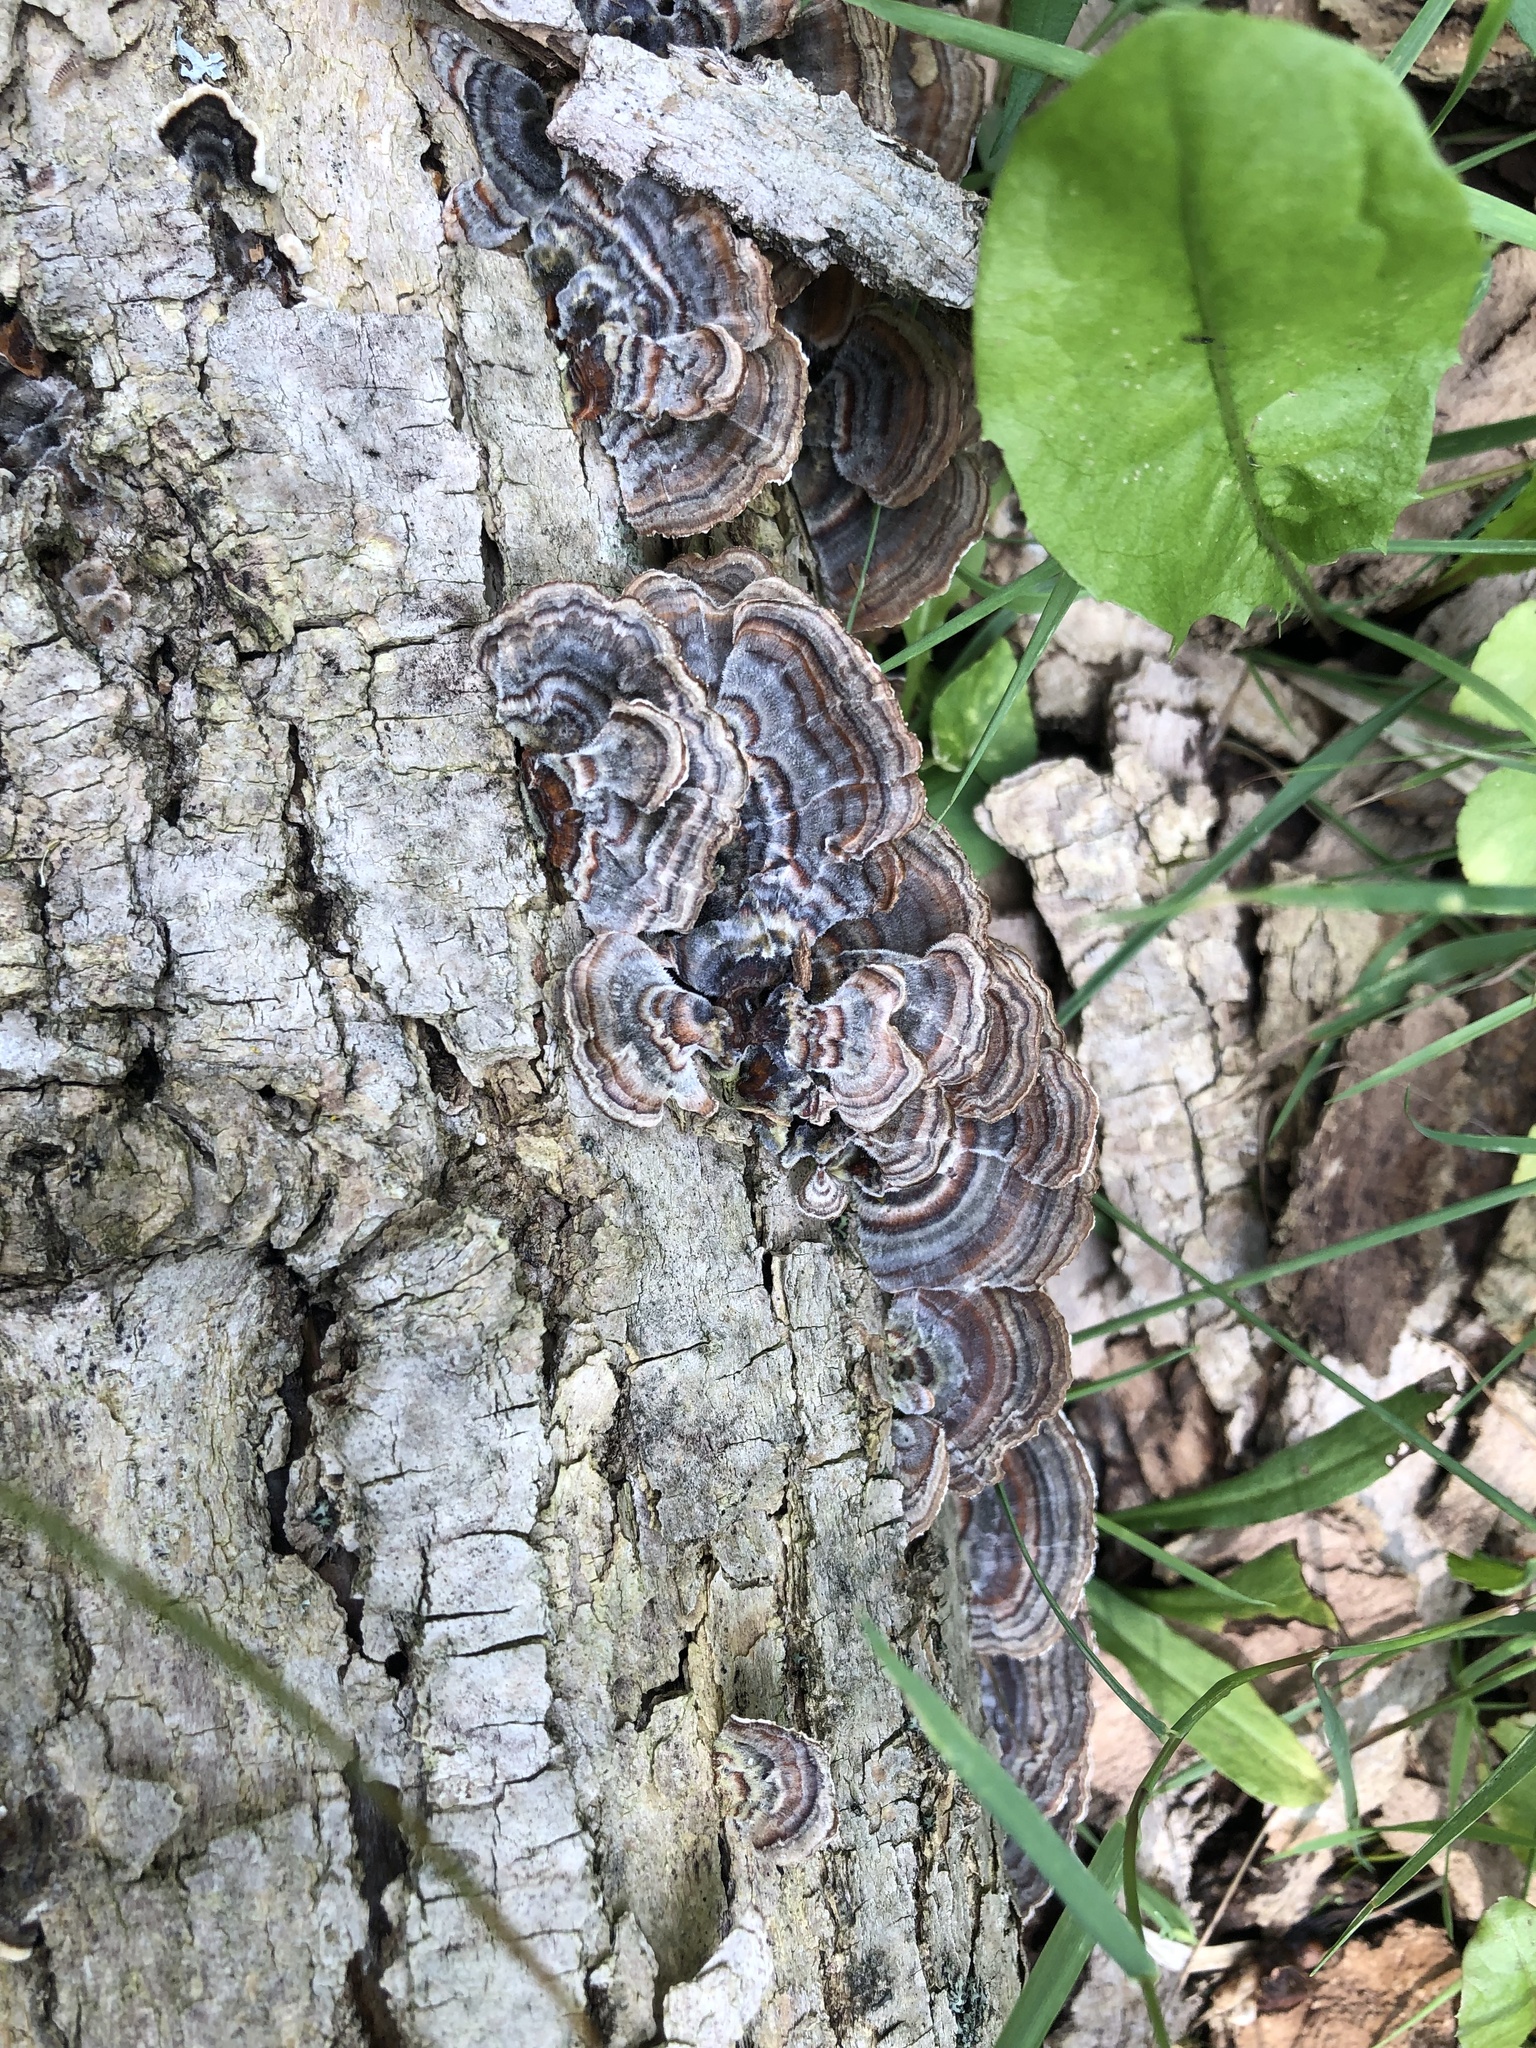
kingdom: Fungi
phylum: Basidiomycota
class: Agaricomycetes
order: Polyporales
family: Polyporaceae
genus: Trametes
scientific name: Trametes versicolor
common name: Turkeytail
